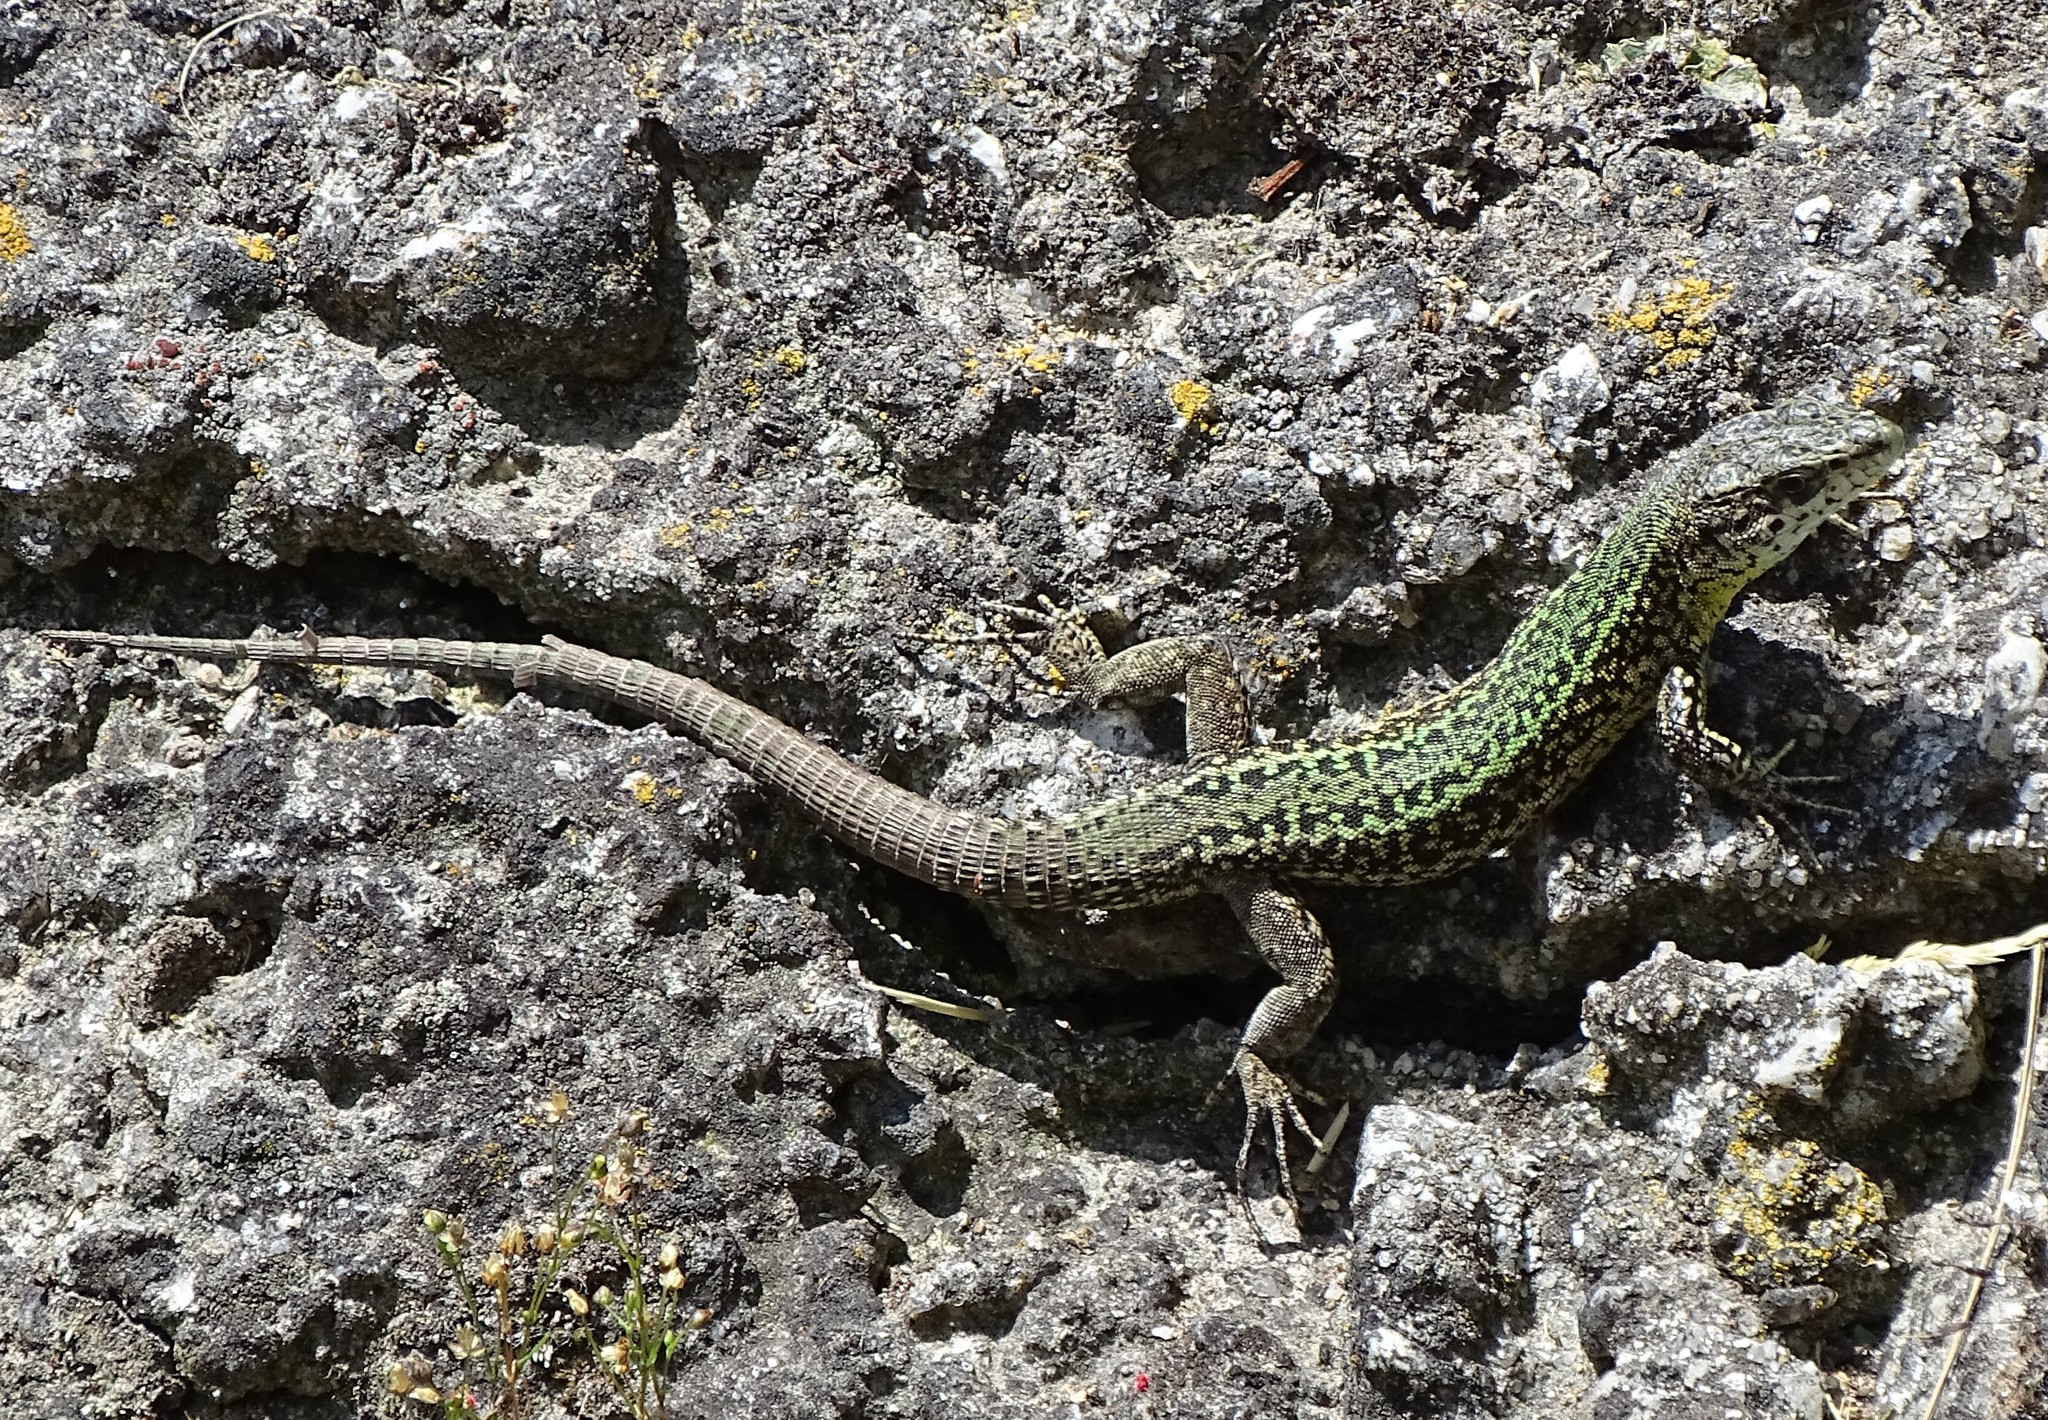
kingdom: Animalia
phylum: Chordata
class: Squamata
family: Lacertidae
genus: Podarcis
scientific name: Podarcis bocagei
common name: Bocage's wall lizard
